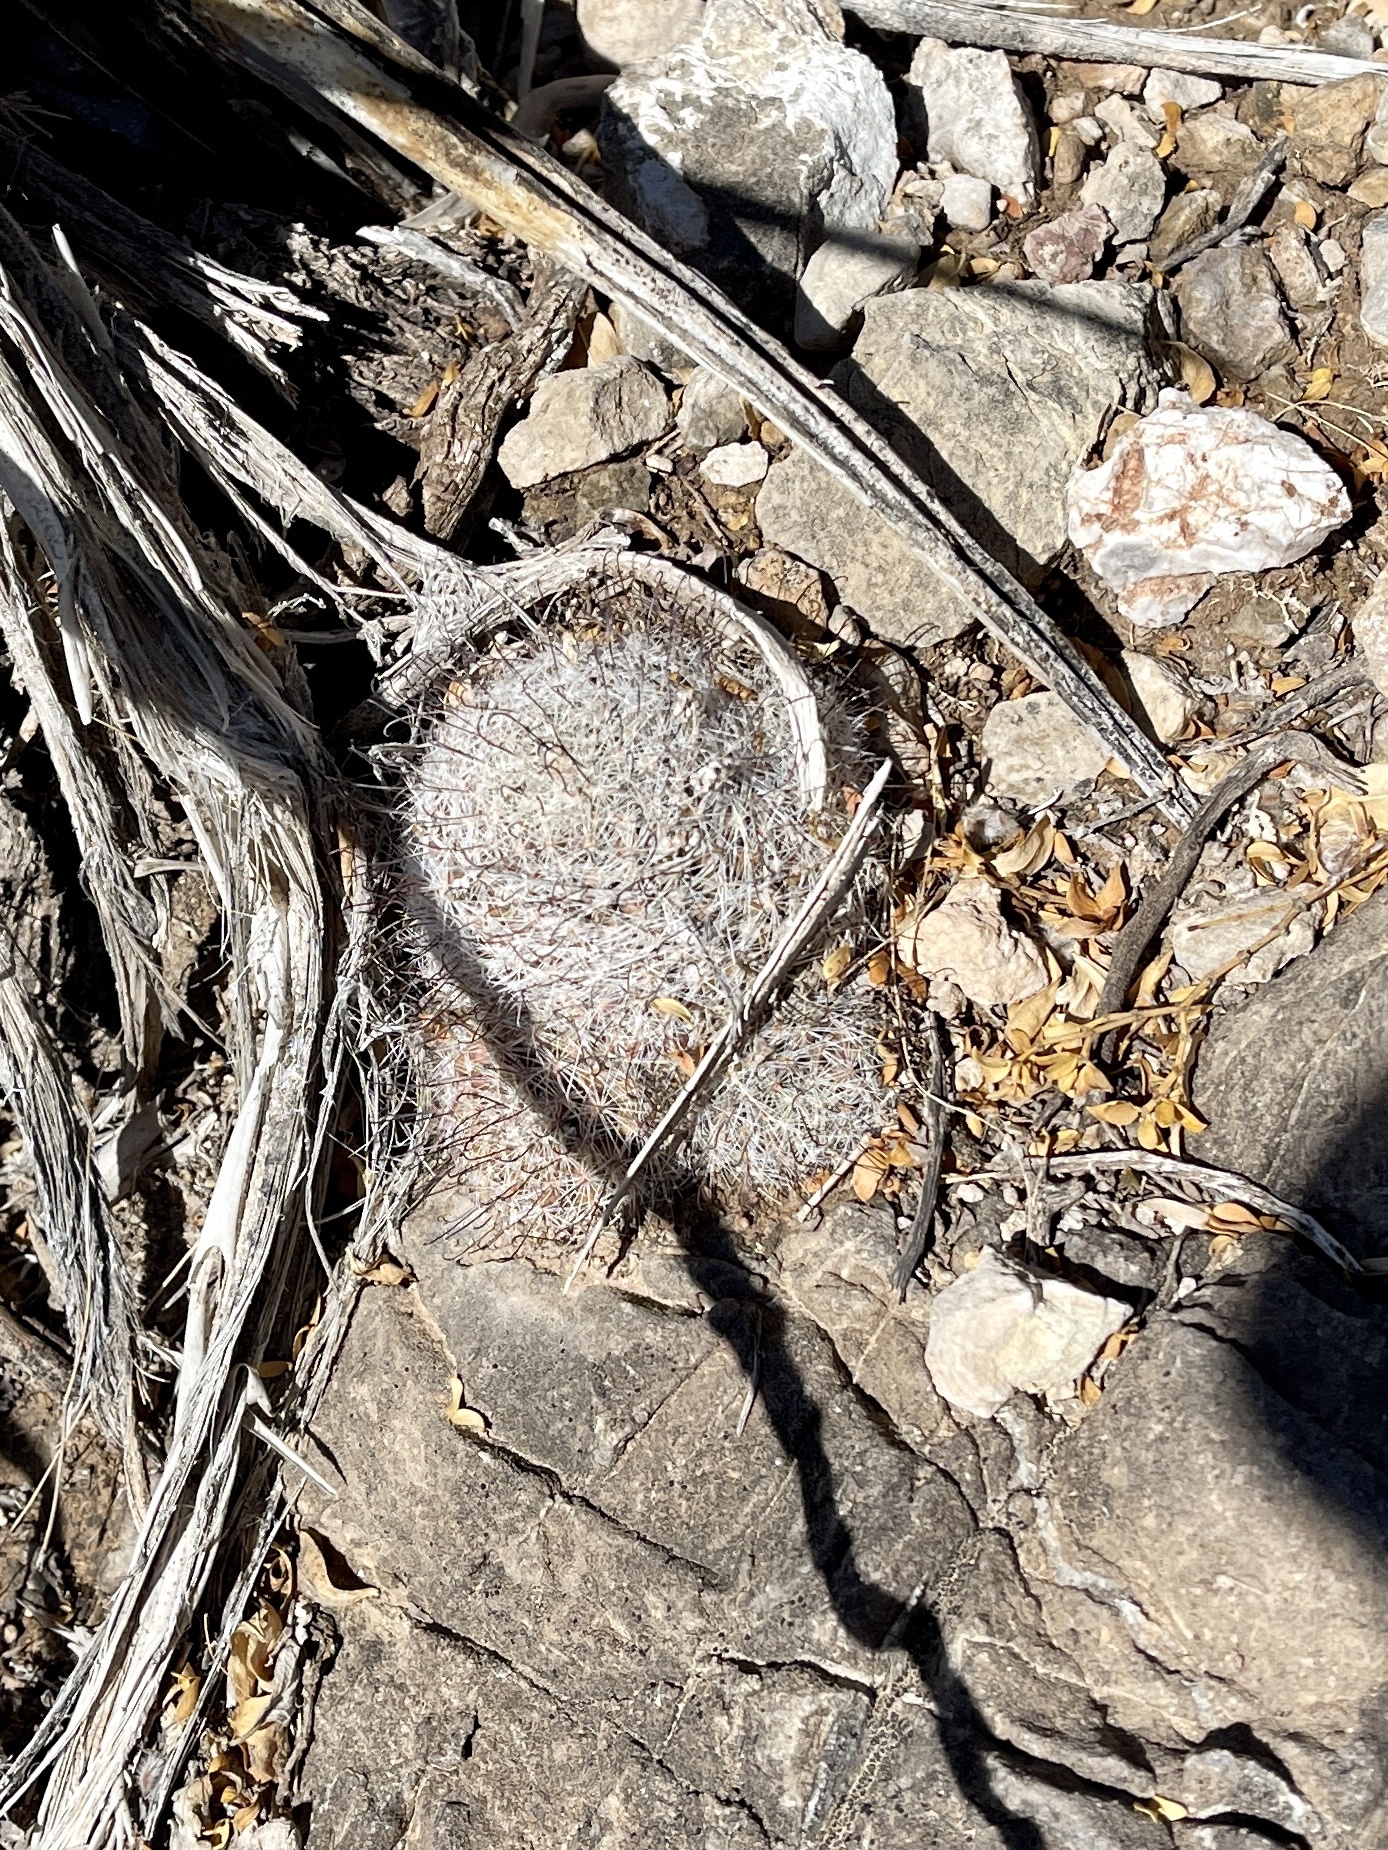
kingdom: Plantae
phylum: Tracheophyta
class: Magnoliopsida
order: Caryophyllales
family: Cactaceae
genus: Cochemiea
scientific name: Cochemiea grahamii
